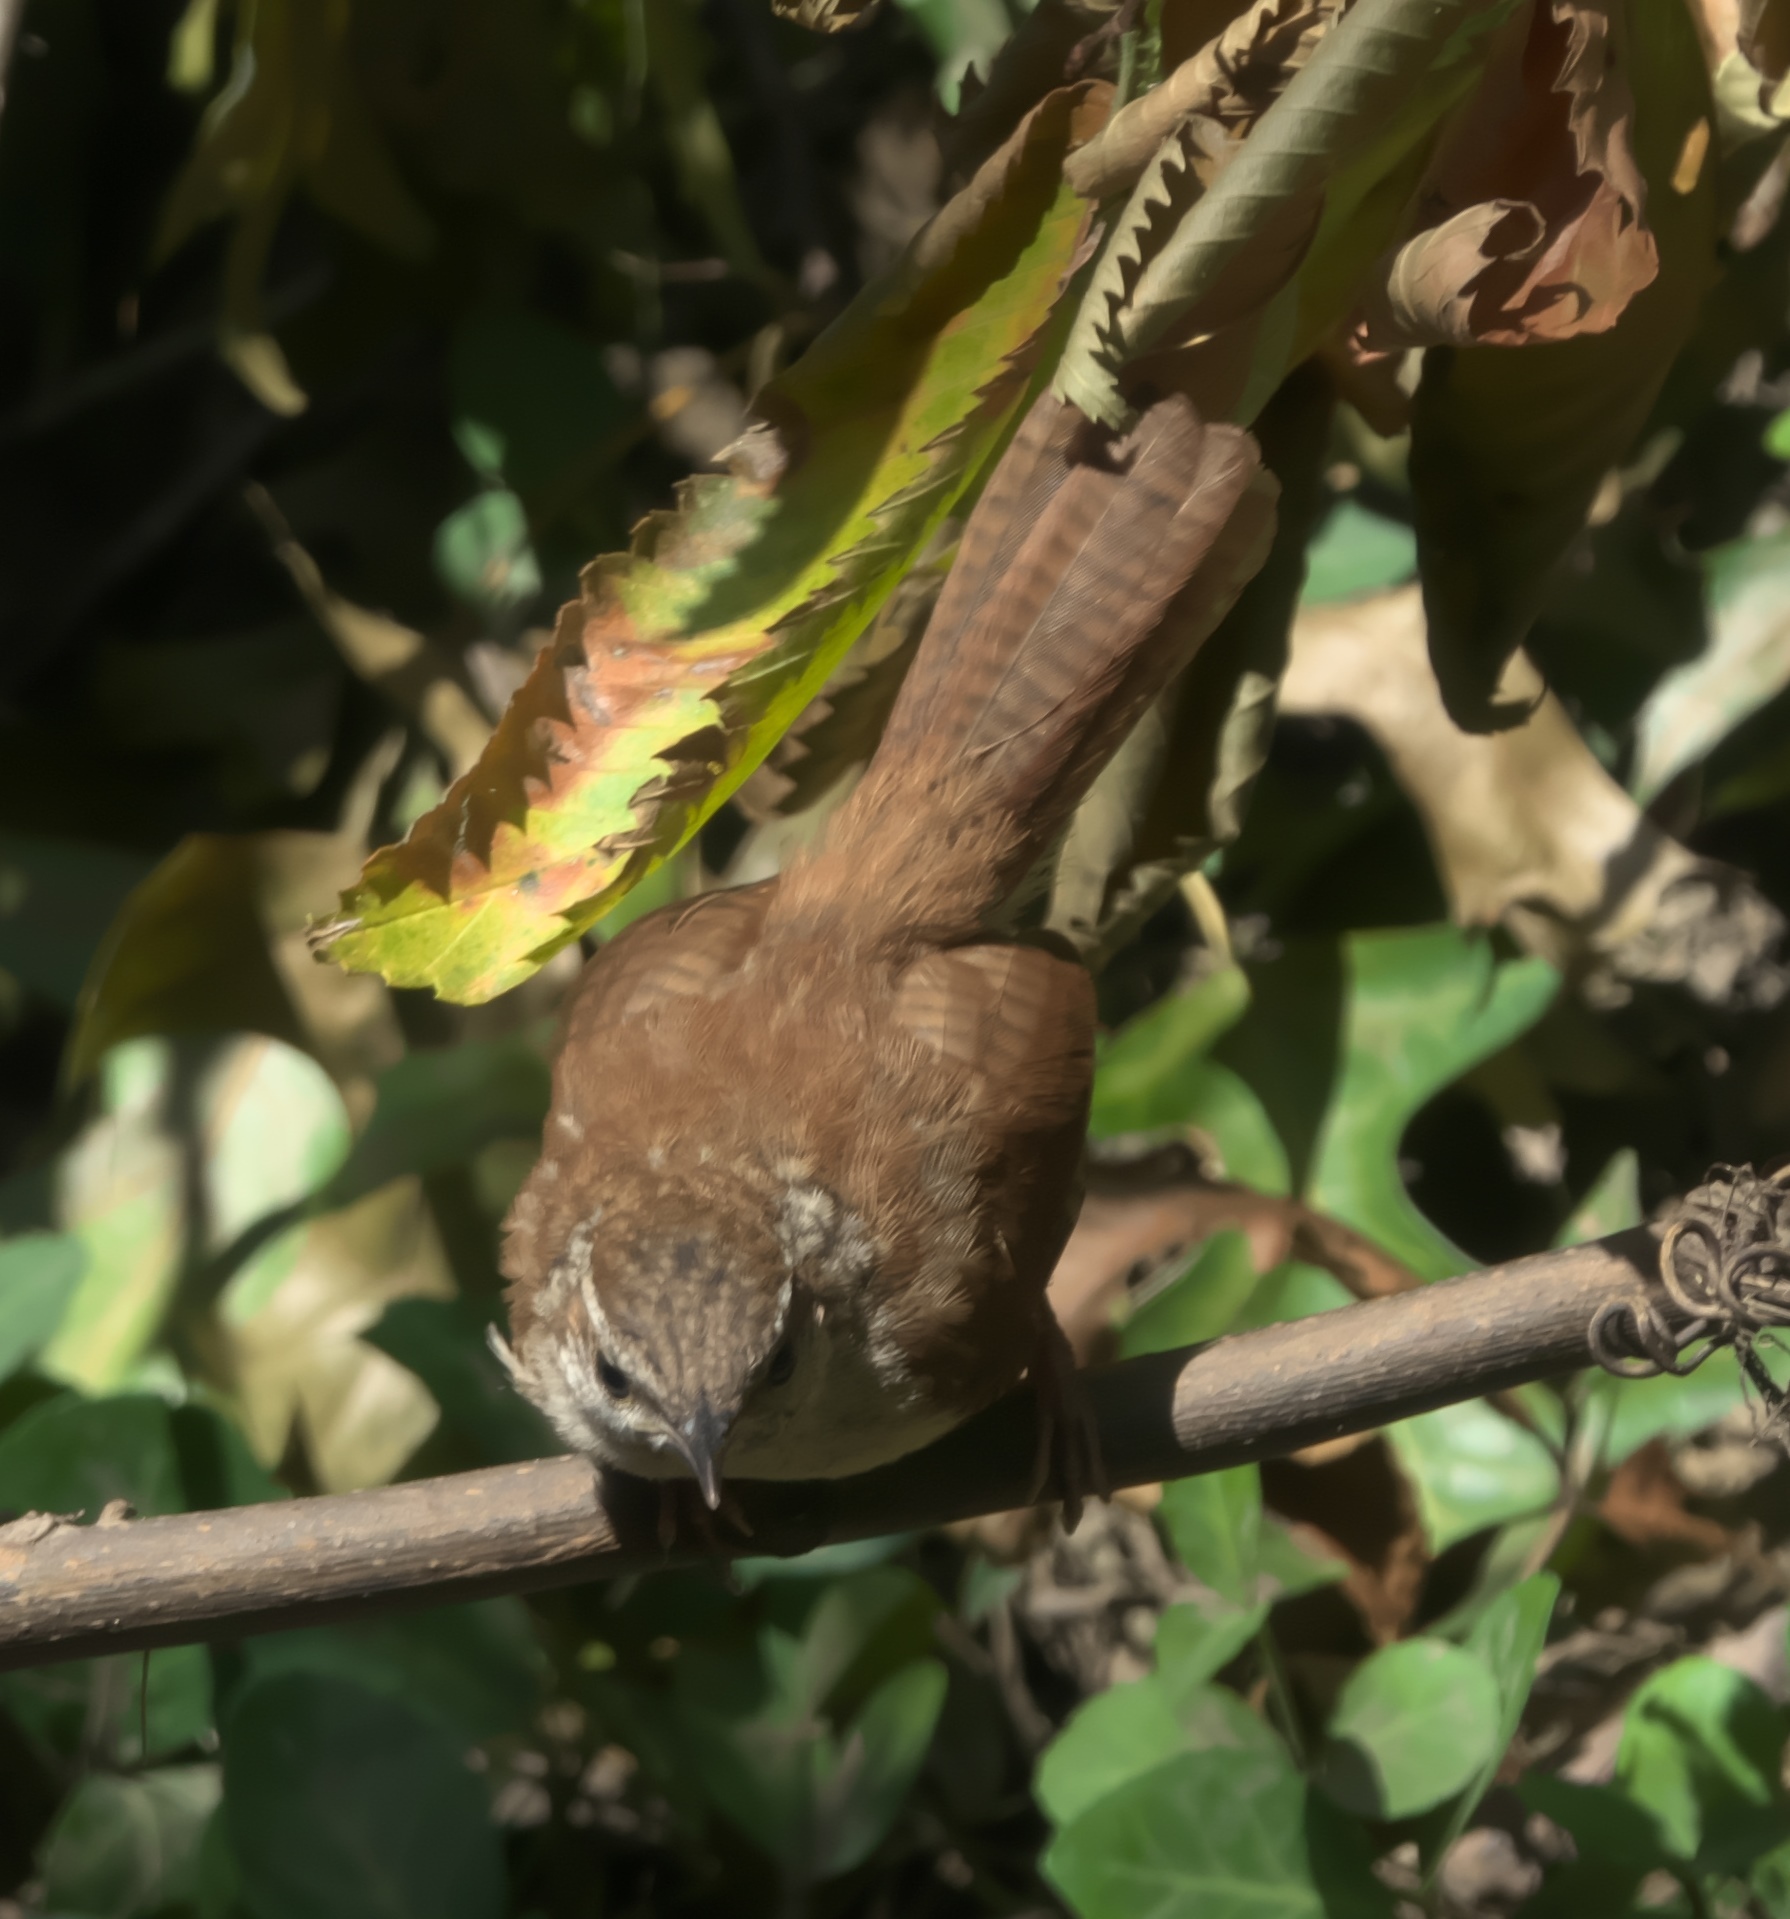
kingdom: Animalia
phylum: Chordata
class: Aves
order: Passeriformes
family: Troglodytidae
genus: Thryothorus
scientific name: Thryothorus ludovicianus
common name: Carolina wren
